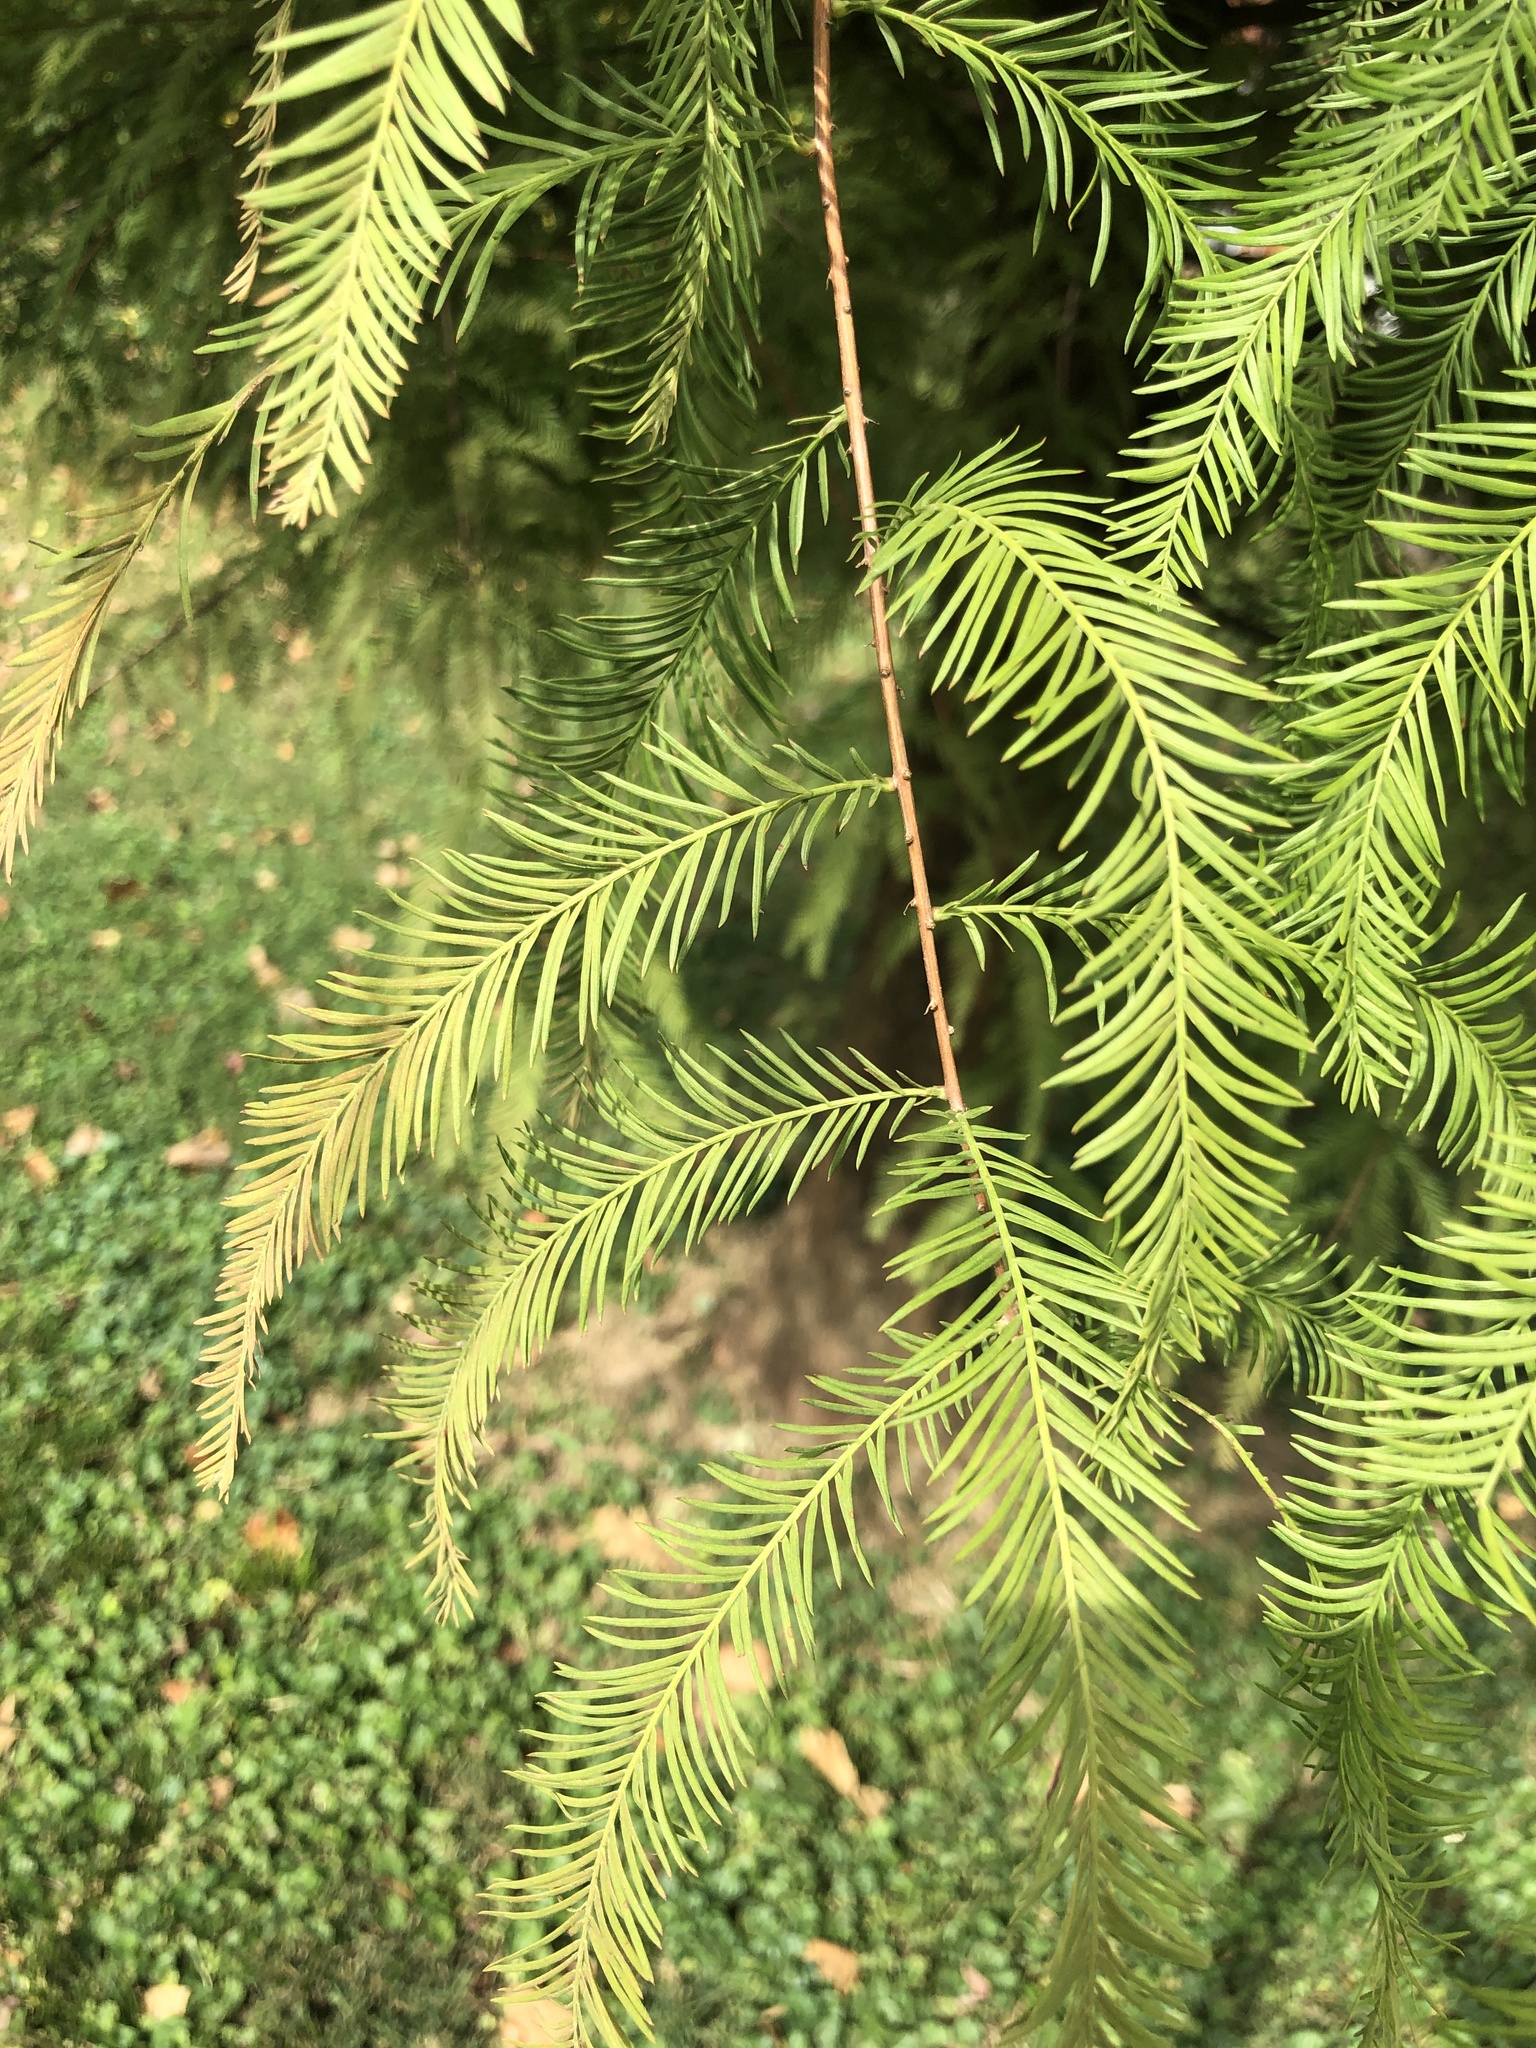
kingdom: Plantae
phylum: Tracheophyta
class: Pinopsida
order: Pinales
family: Cupressaceae
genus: Taxodium
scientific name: Taxodium distichum
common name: Bald cypress
